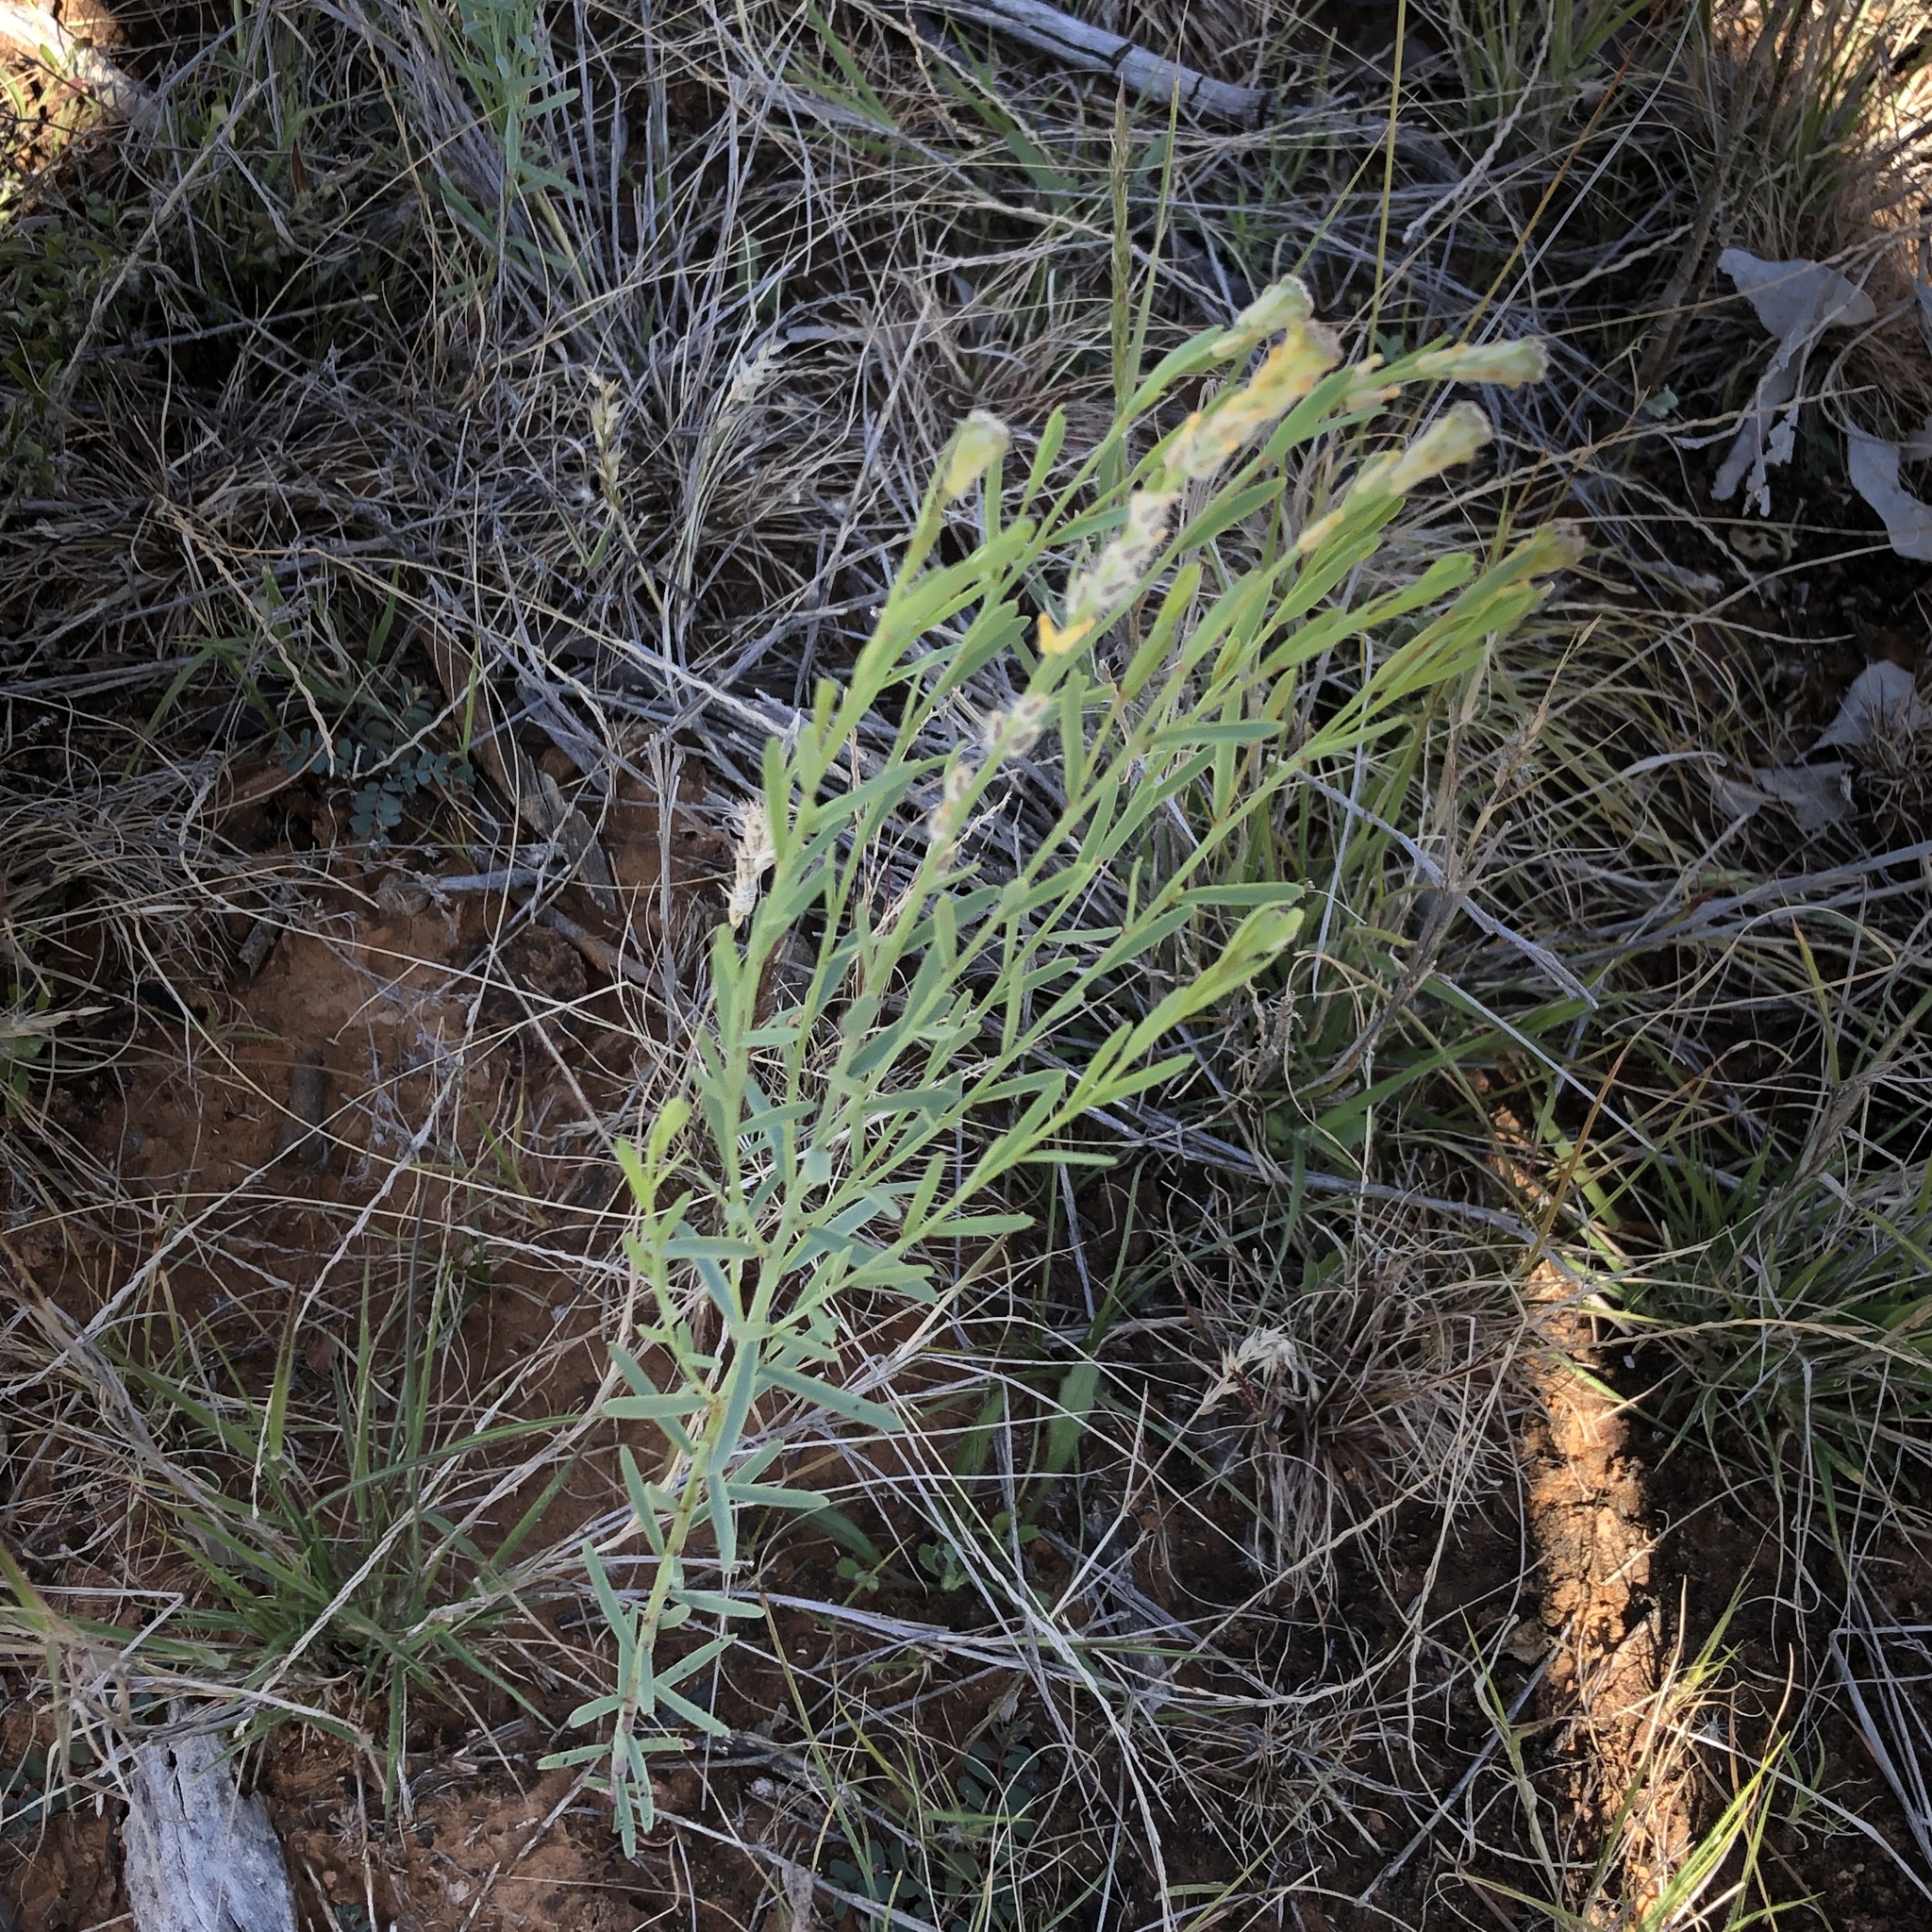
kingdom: Plantae
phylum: Tracheophyta
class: Magnoliopsida
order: Malvales
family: Thymelaeaceae
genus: Pimelea
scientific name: Pimelea trichostachya
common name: Poverty-bush
